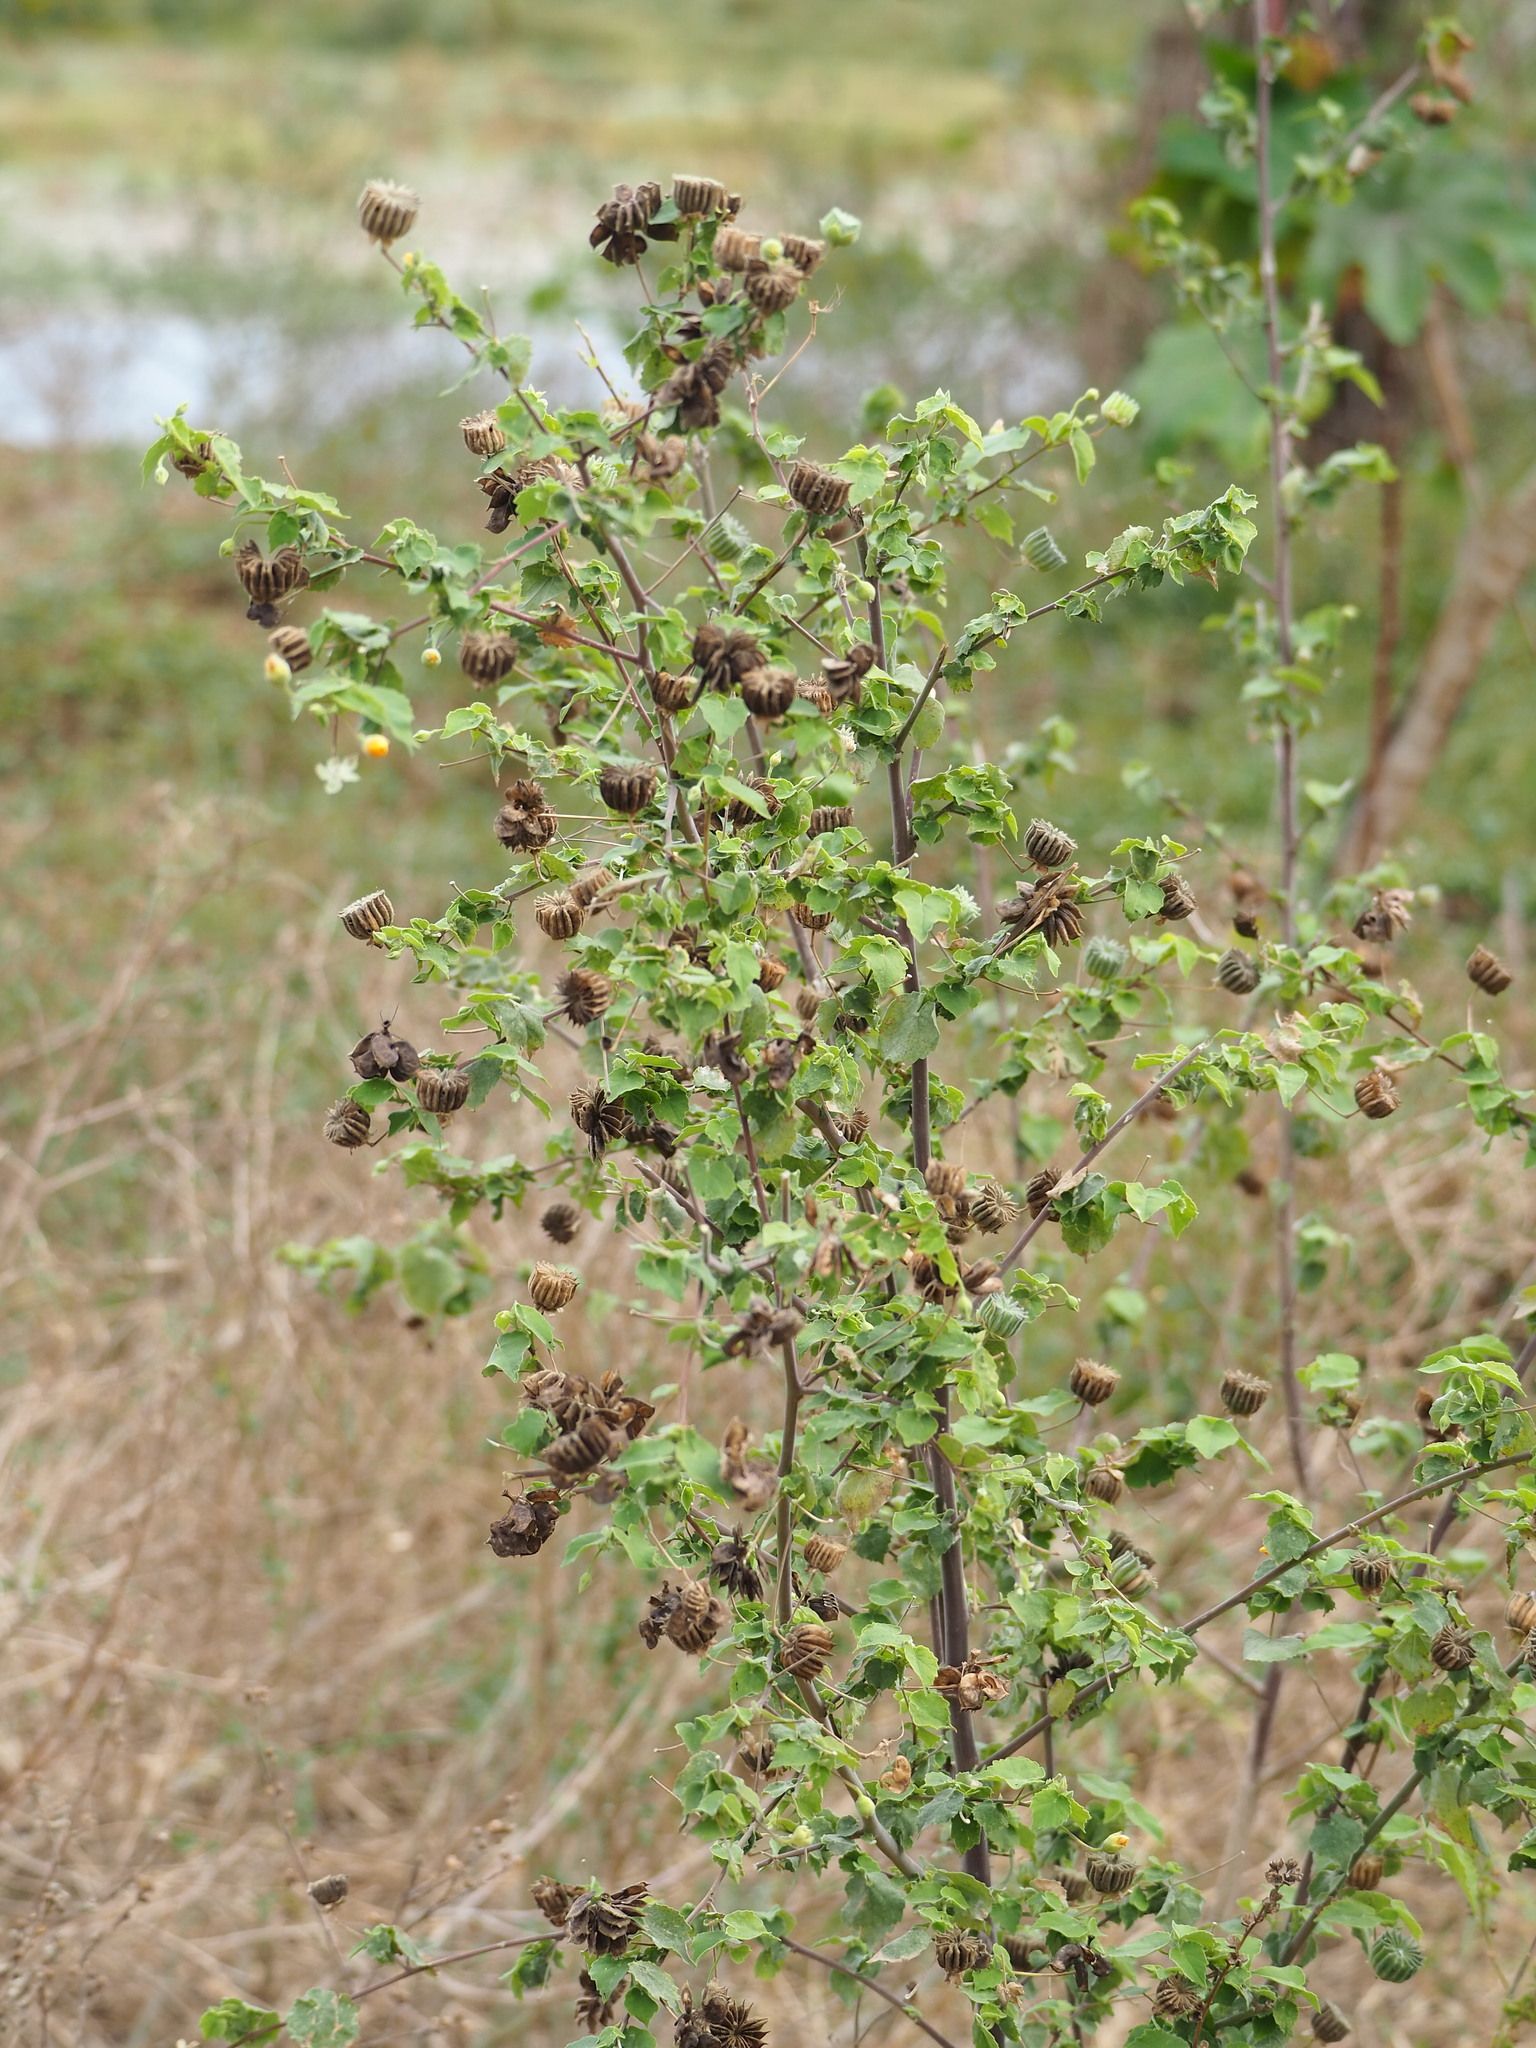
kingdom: Plantae
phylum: Tracheophyta
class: Magnoliopsida
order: Malvales
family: Malvaceae
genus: Abutilon
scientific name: Abutilon indicum
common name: Indian abutilon
